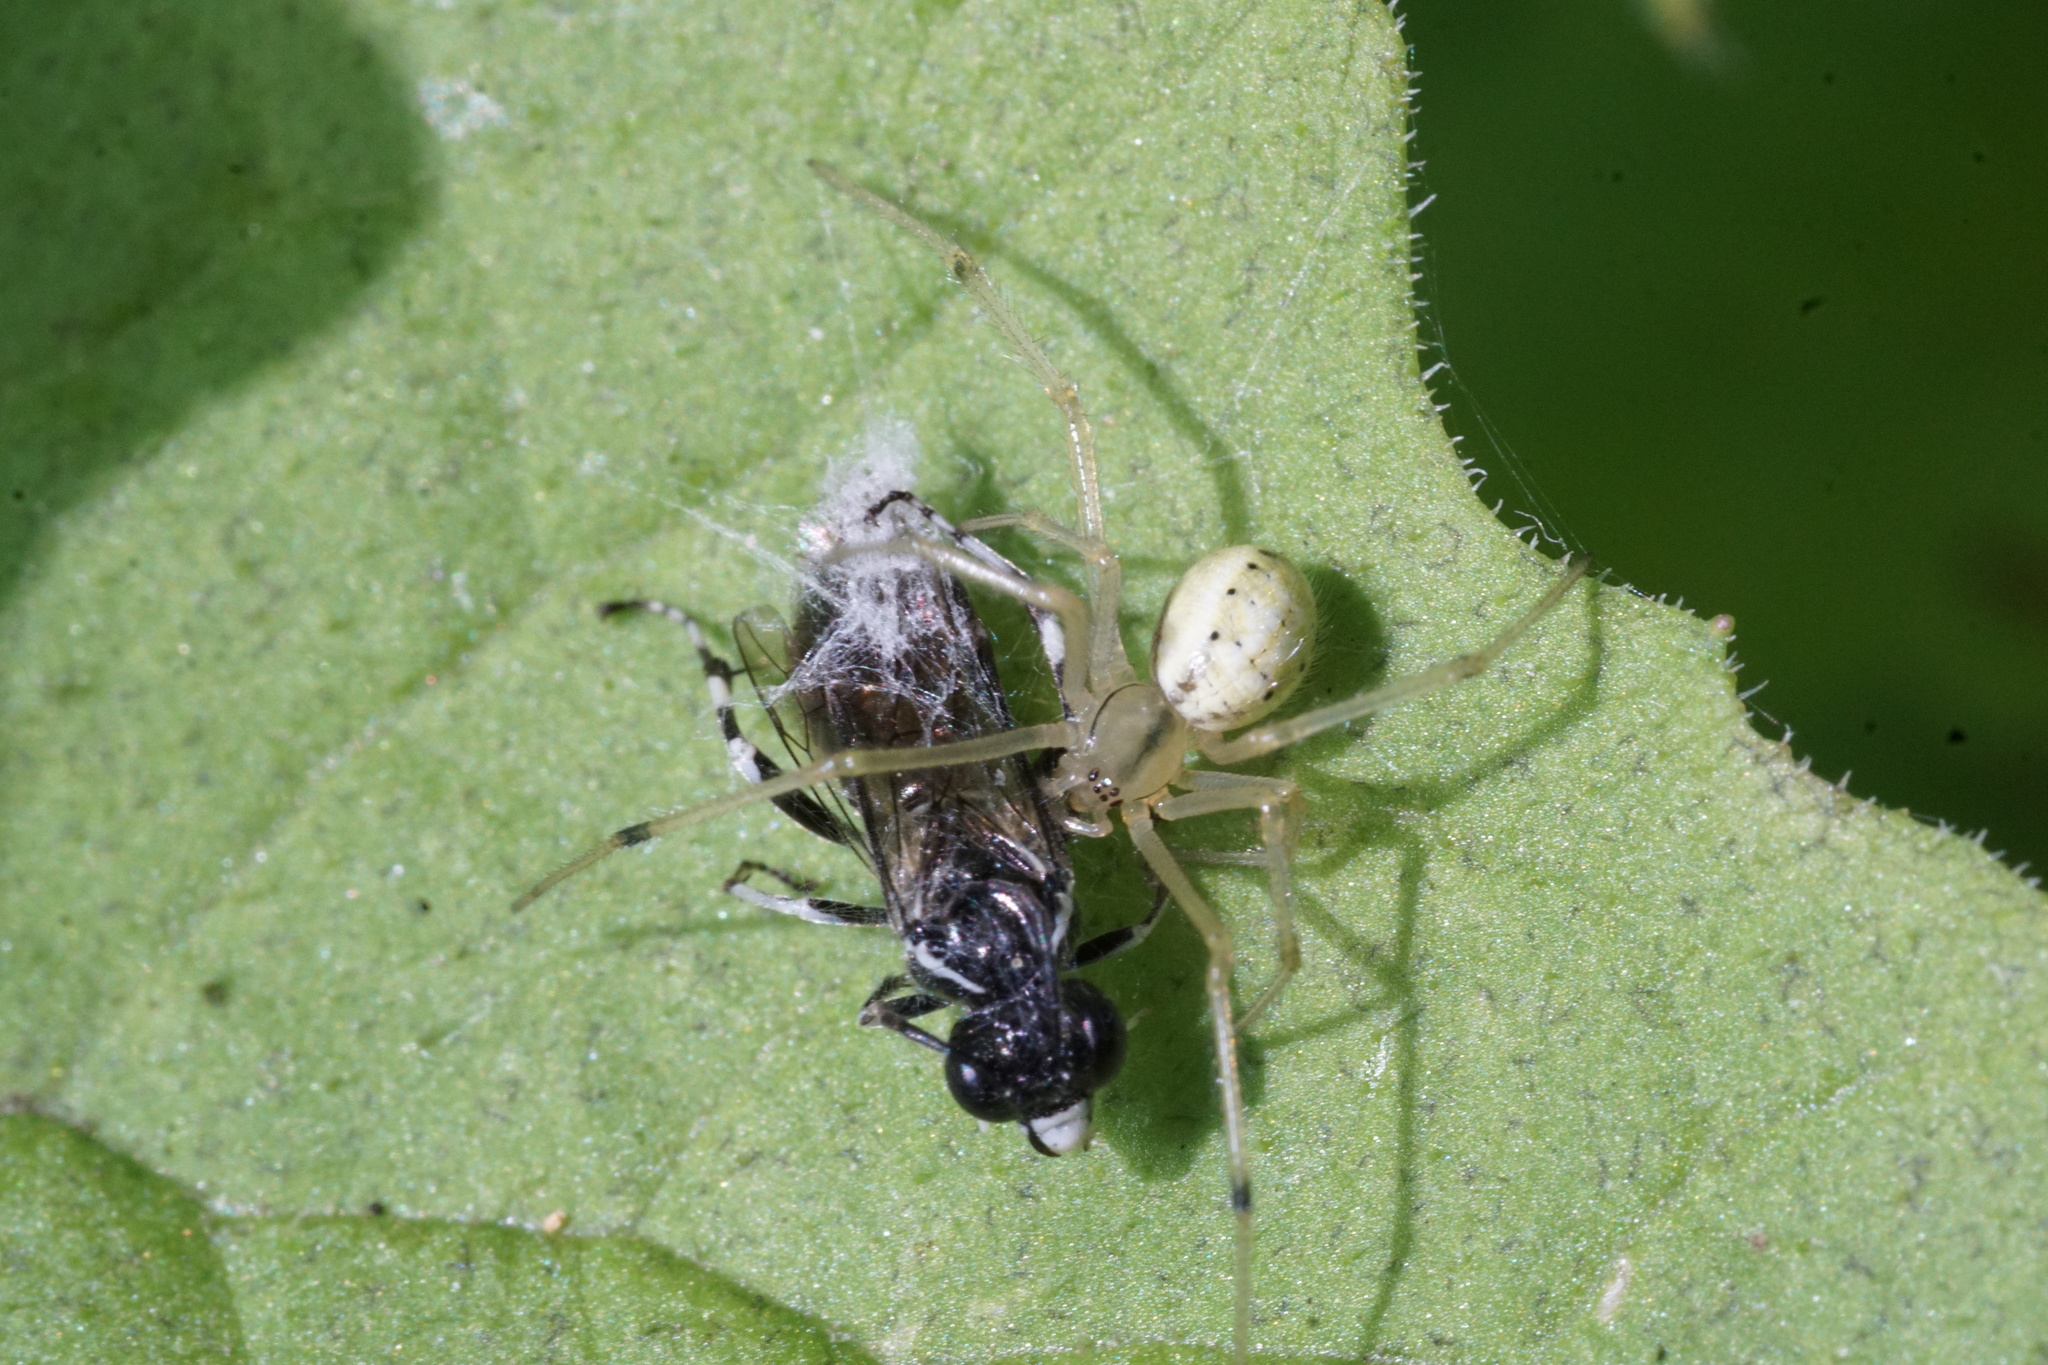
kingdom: Animalia
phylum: Arthropoda
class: Arachnida
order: Araneae
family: Theridiidae
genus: Enoplognatha
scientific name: Enoplognatha
